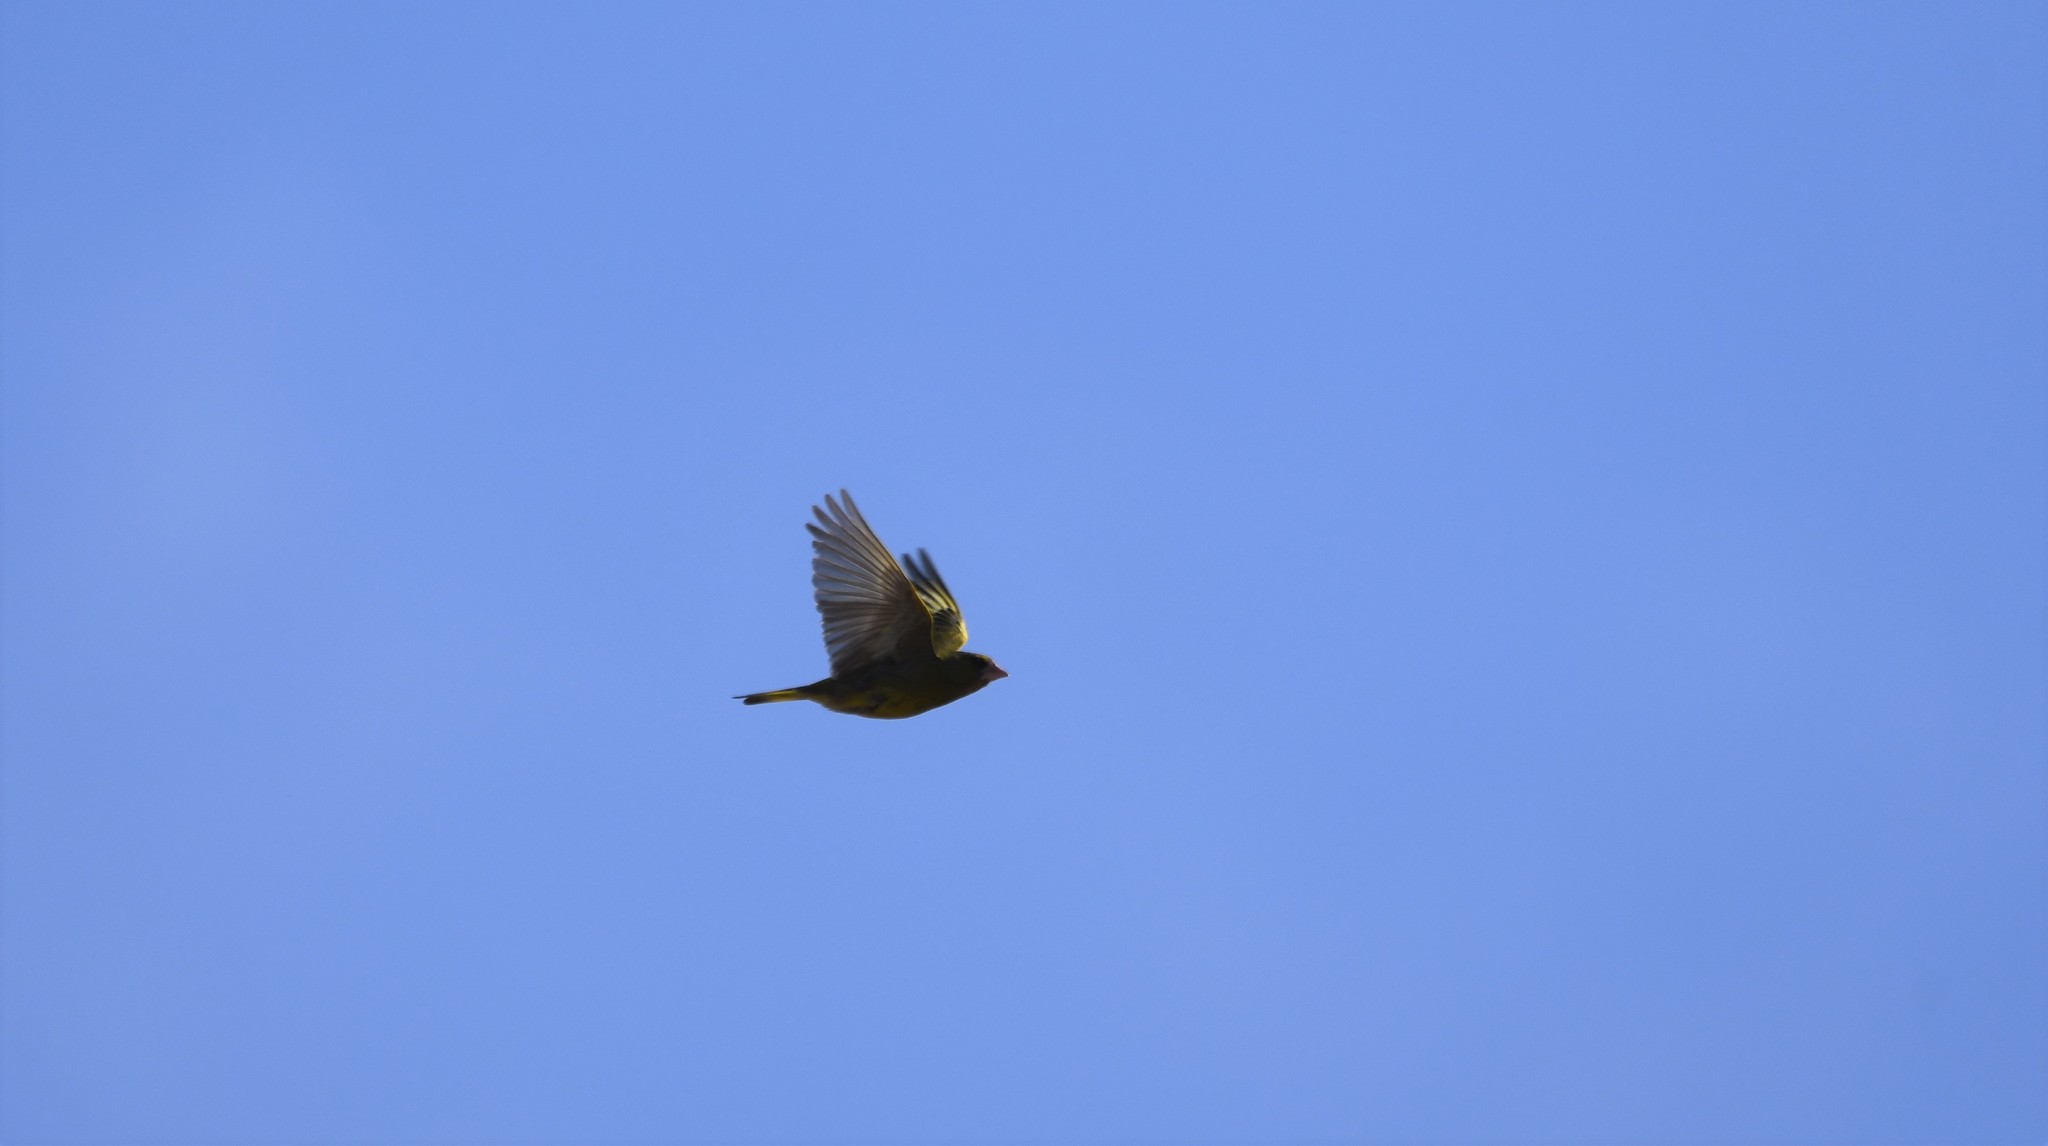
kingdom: Plantae
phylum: Tracheophyta
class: Liliopsida
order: Poales
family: Poaceae
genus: Chloris
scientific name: Chloris chloris
